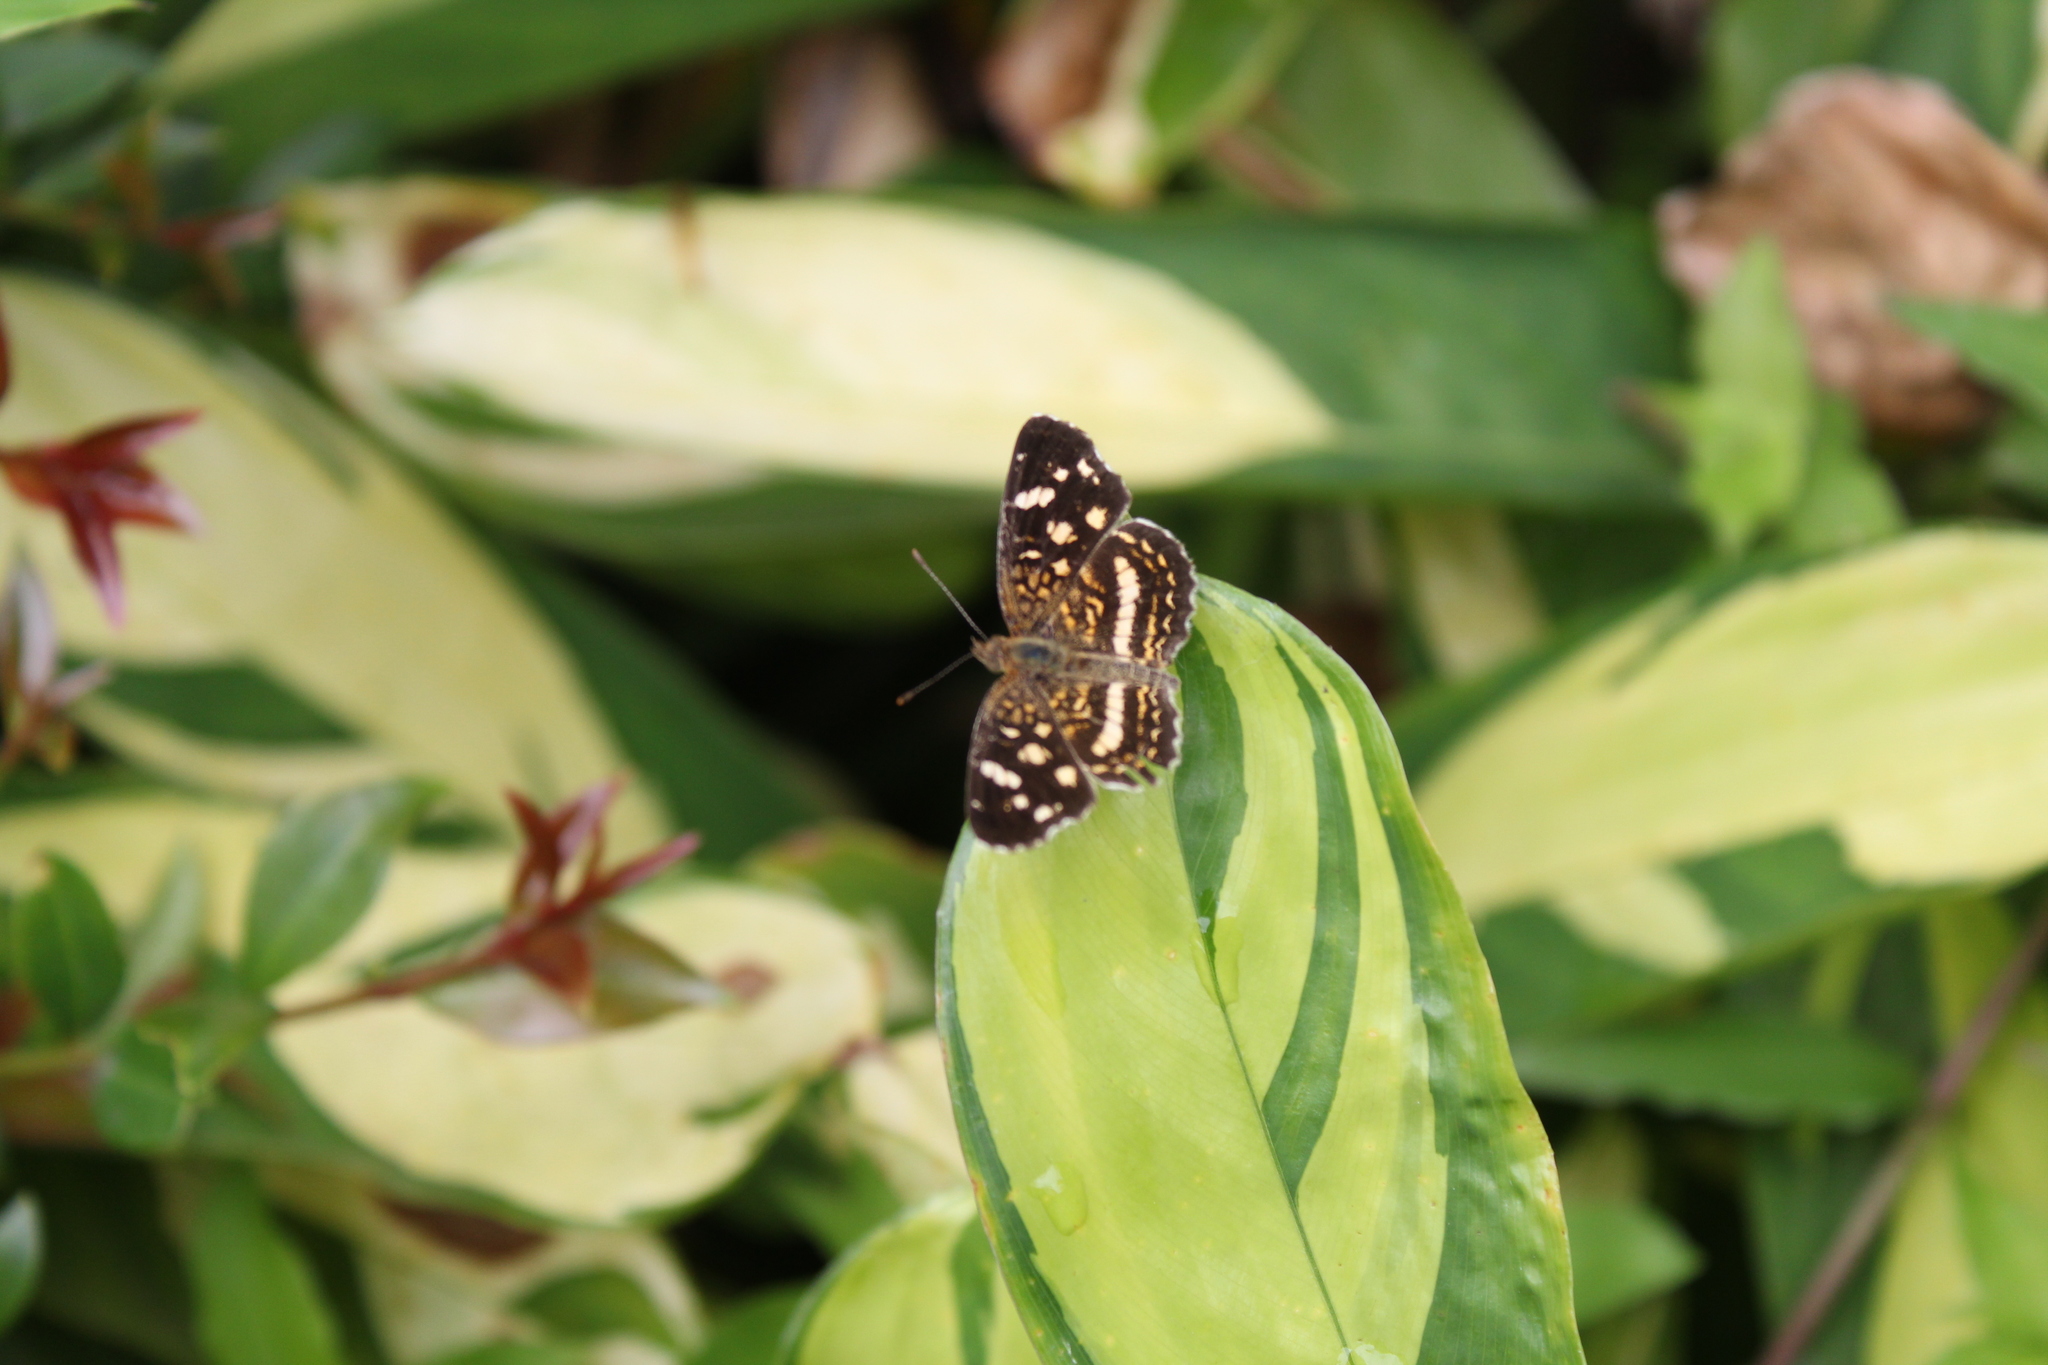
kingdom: Animalia
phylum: Arthropoda
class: Insecta
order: Lepidoptera
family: Nymphalidae
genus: Anthanassa
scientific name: Anthanassa tulcis
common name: Pale-banded crescent
